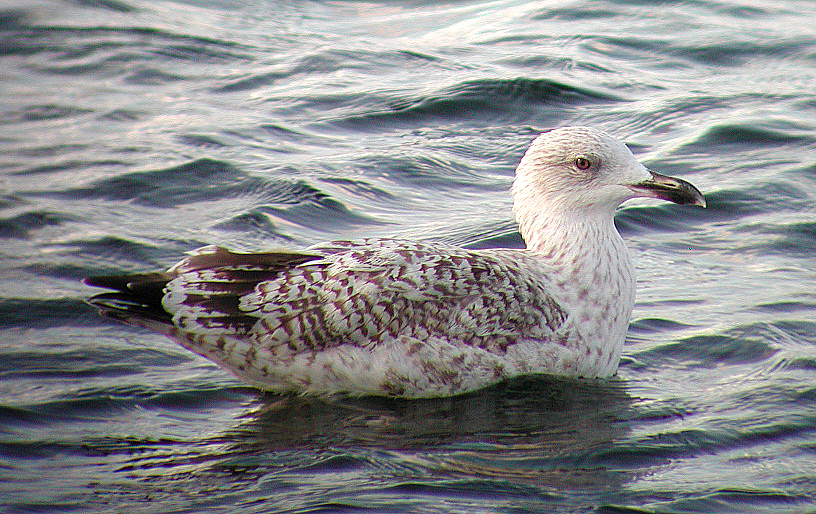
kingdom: Animalia
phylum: Chordata
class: Aves
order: Charadriiformes
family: Laridae
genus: Larus
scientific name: Larus argentatus
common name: Herring gull
